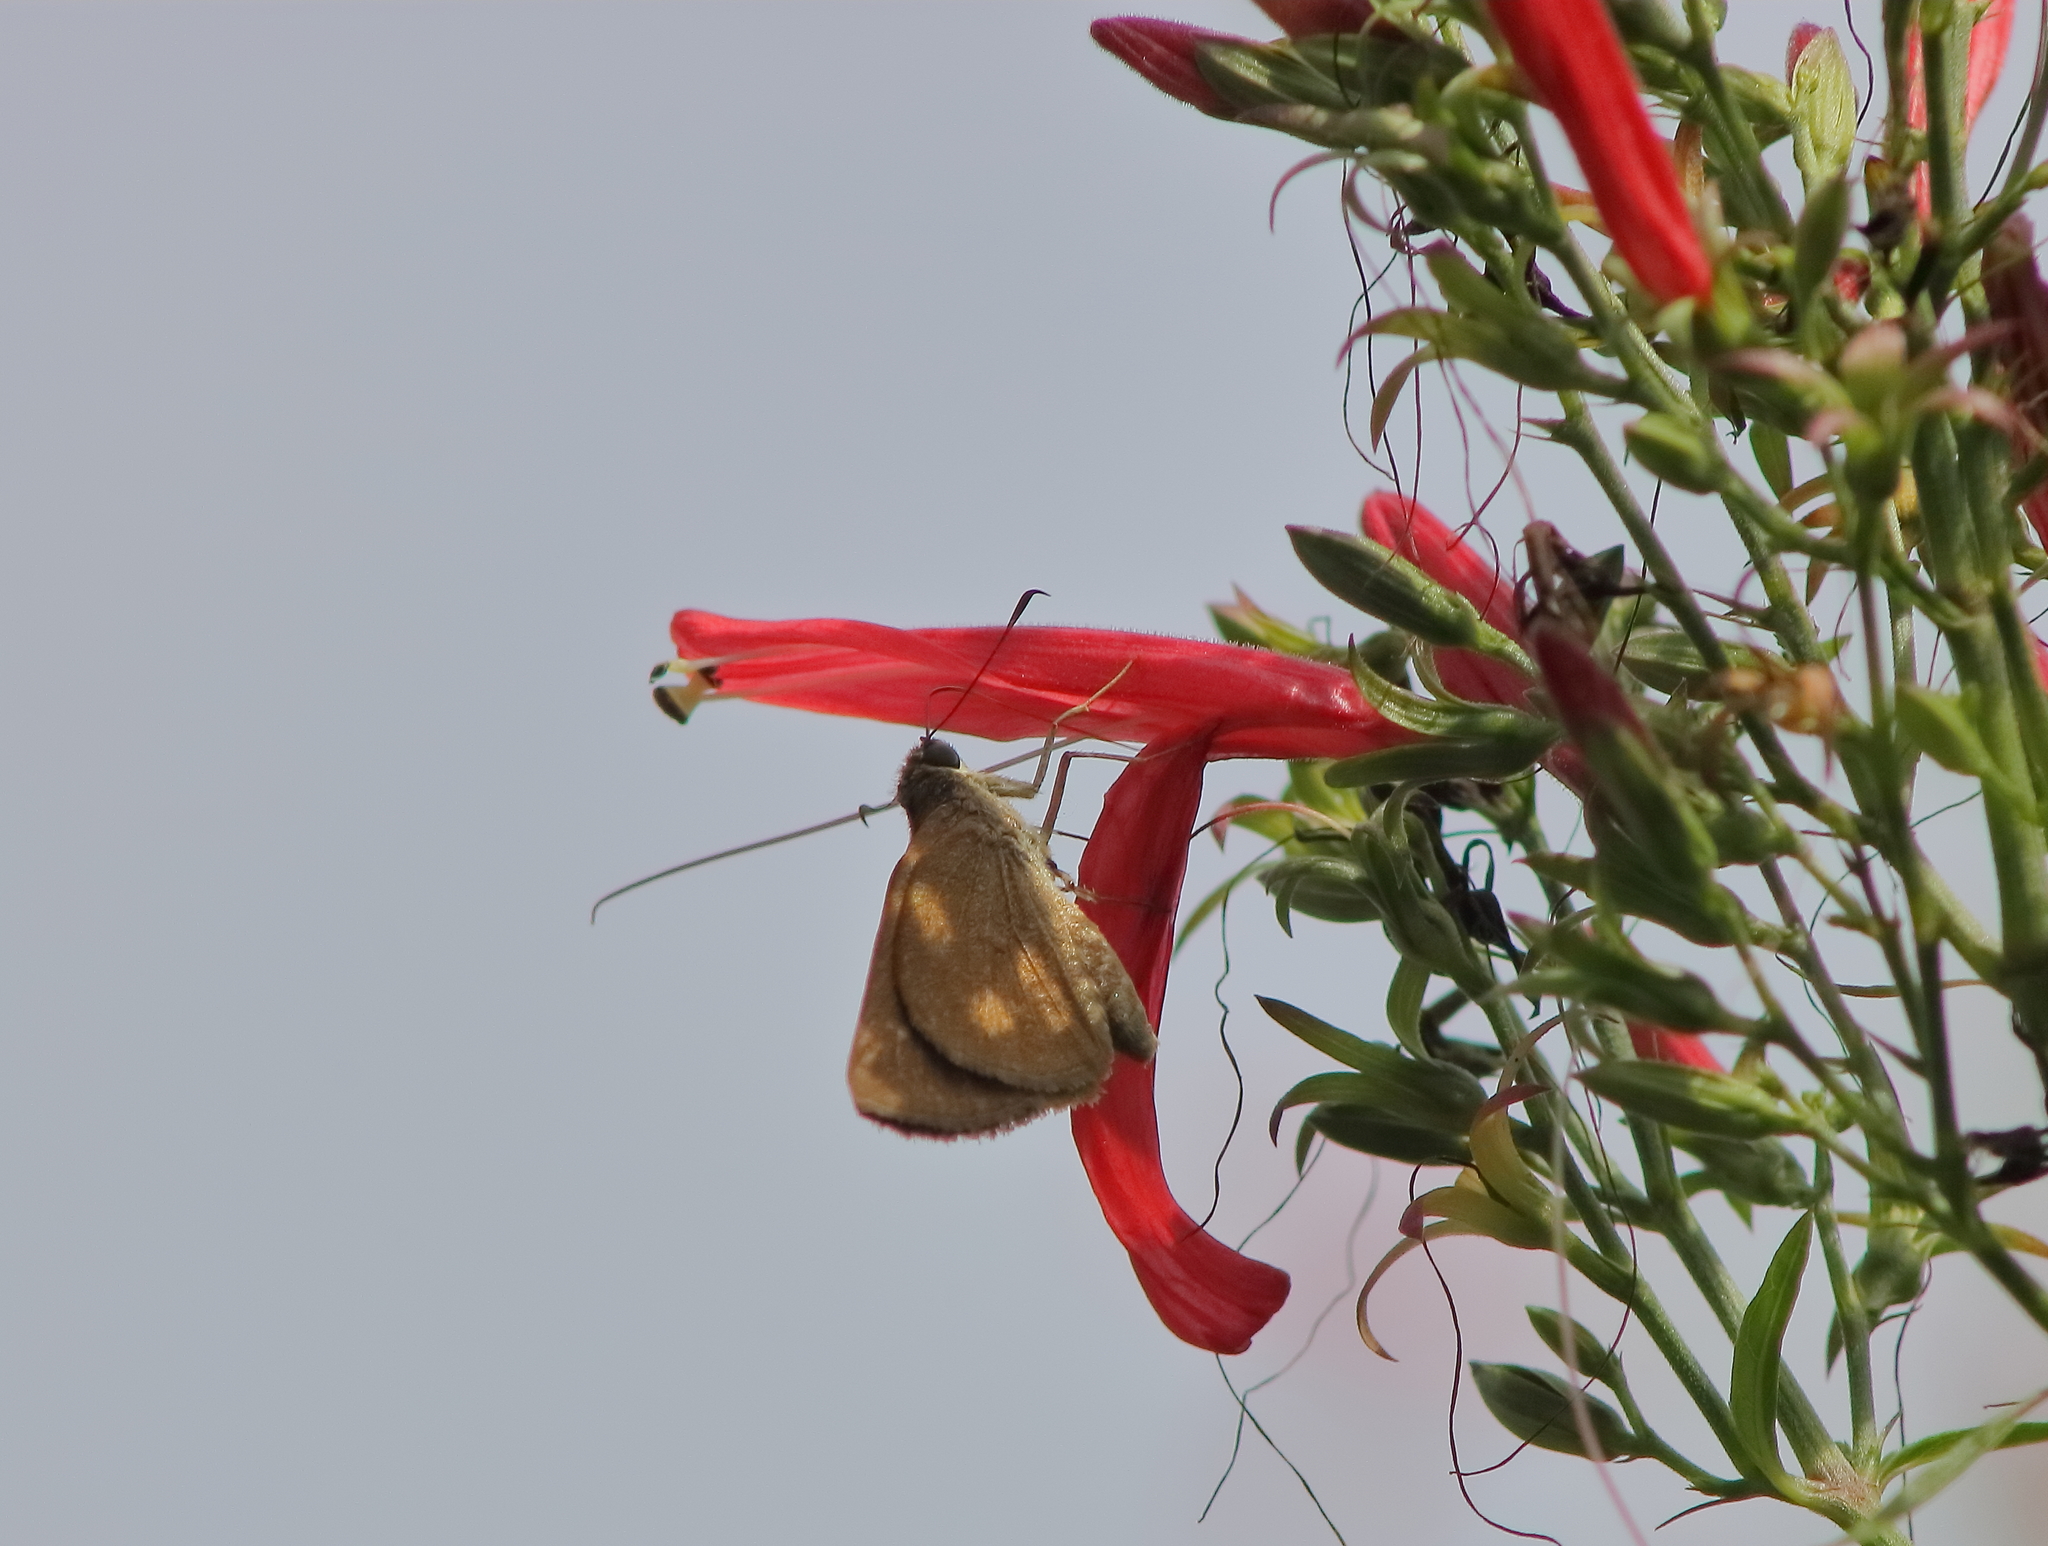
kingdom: Animalia
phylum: Arthropoda
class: Insecta
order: Lepidoptera
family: Hesperiidae
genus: Cymaenes
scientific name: Cymaenes
